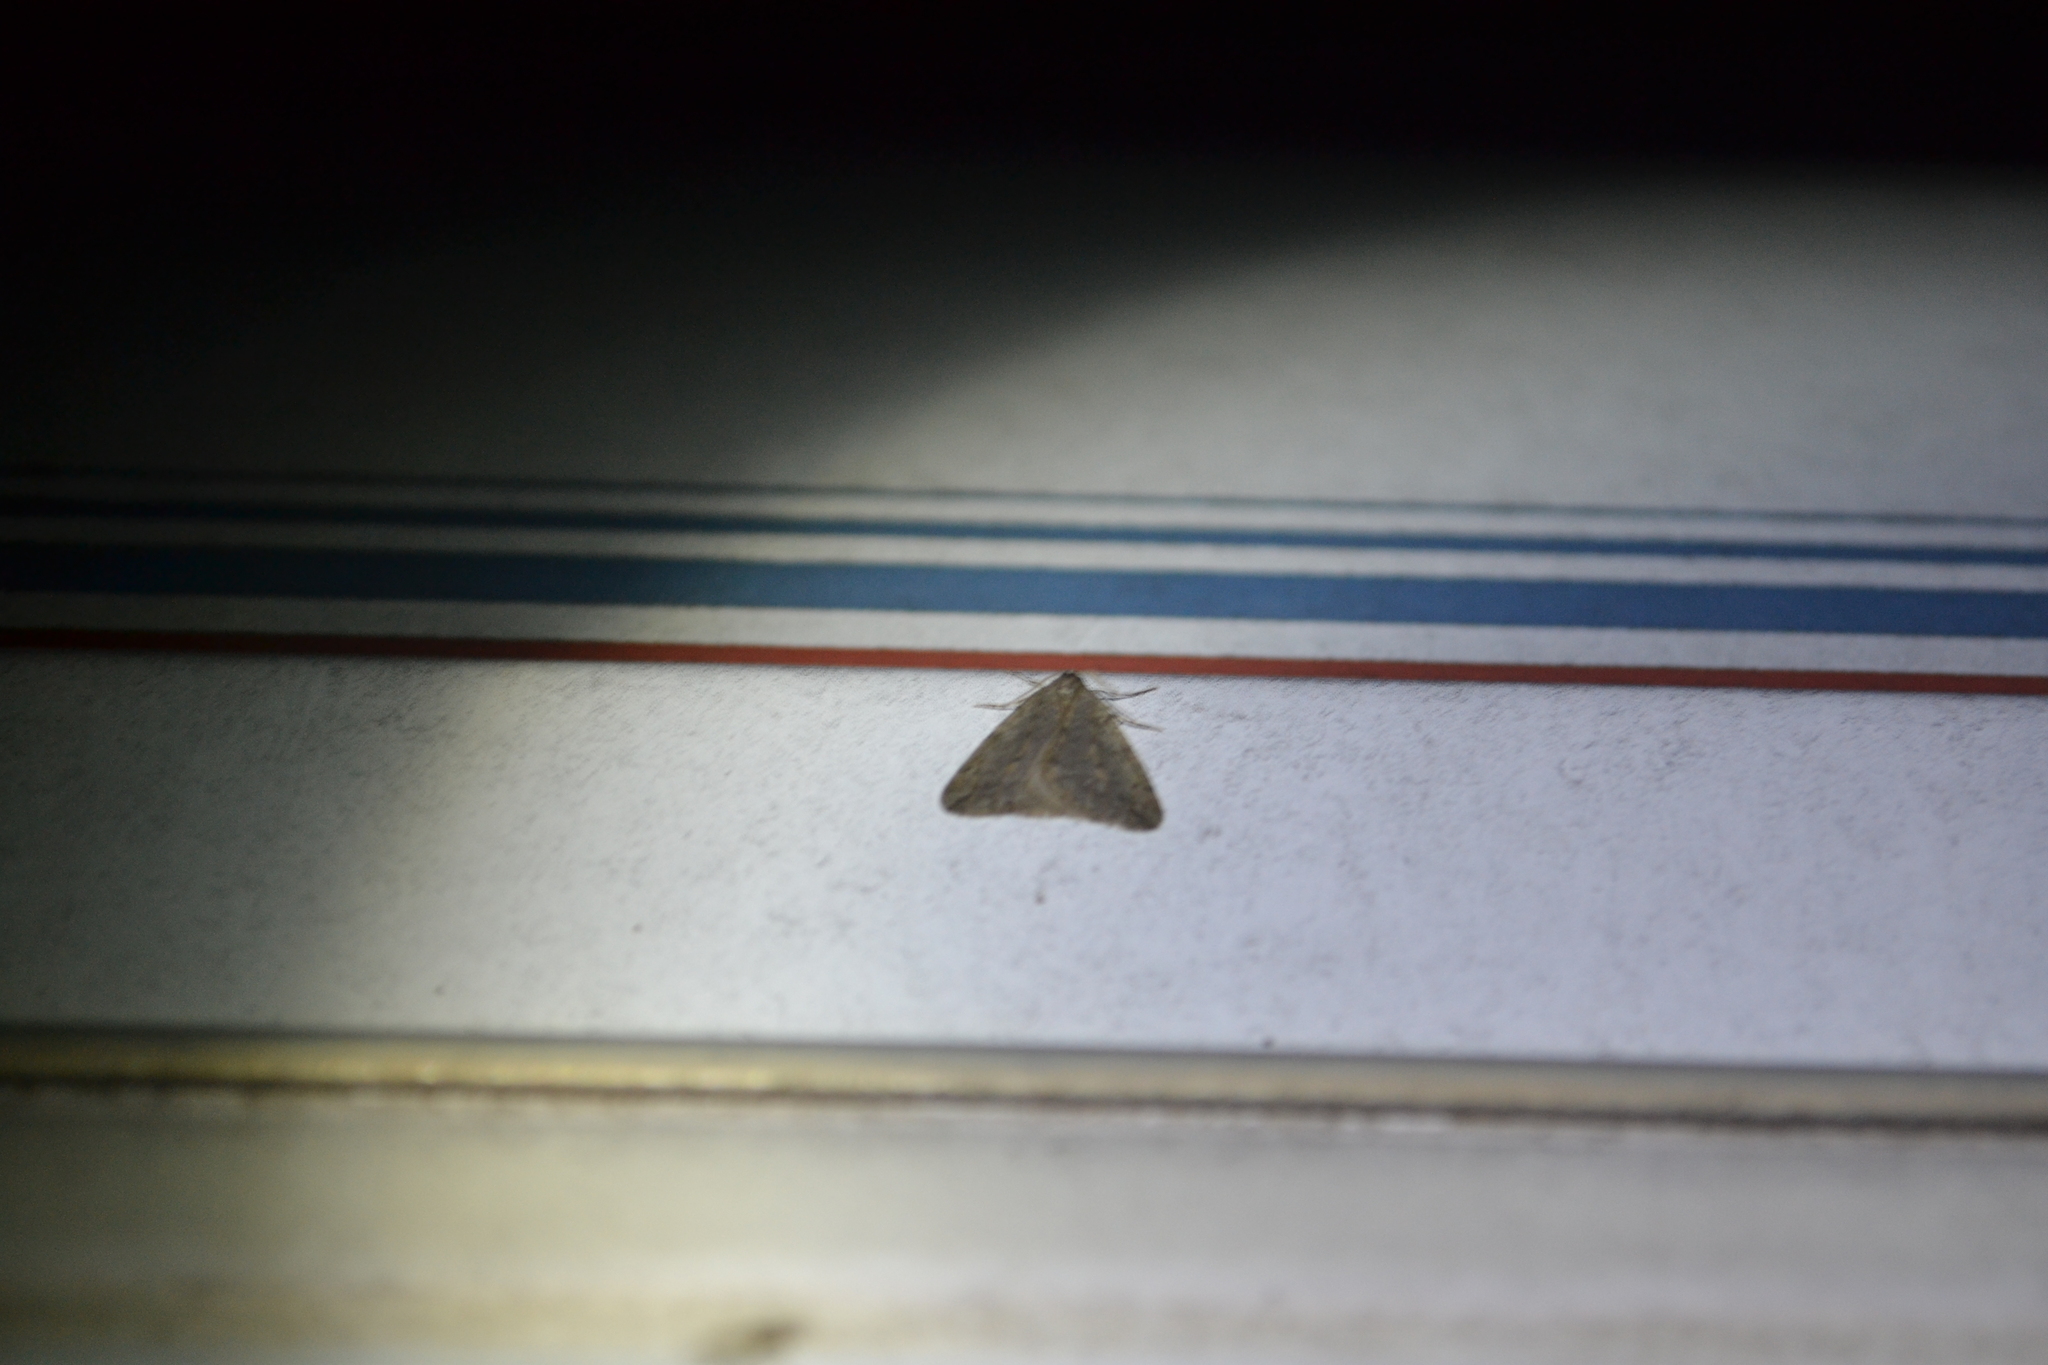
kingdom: Animalia
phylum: Arthropoda
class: Insecta
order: Lepidoptera
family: Geometridae
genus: Paleacrita
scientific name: Paleacrita vernata
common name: Spring cankerworm
